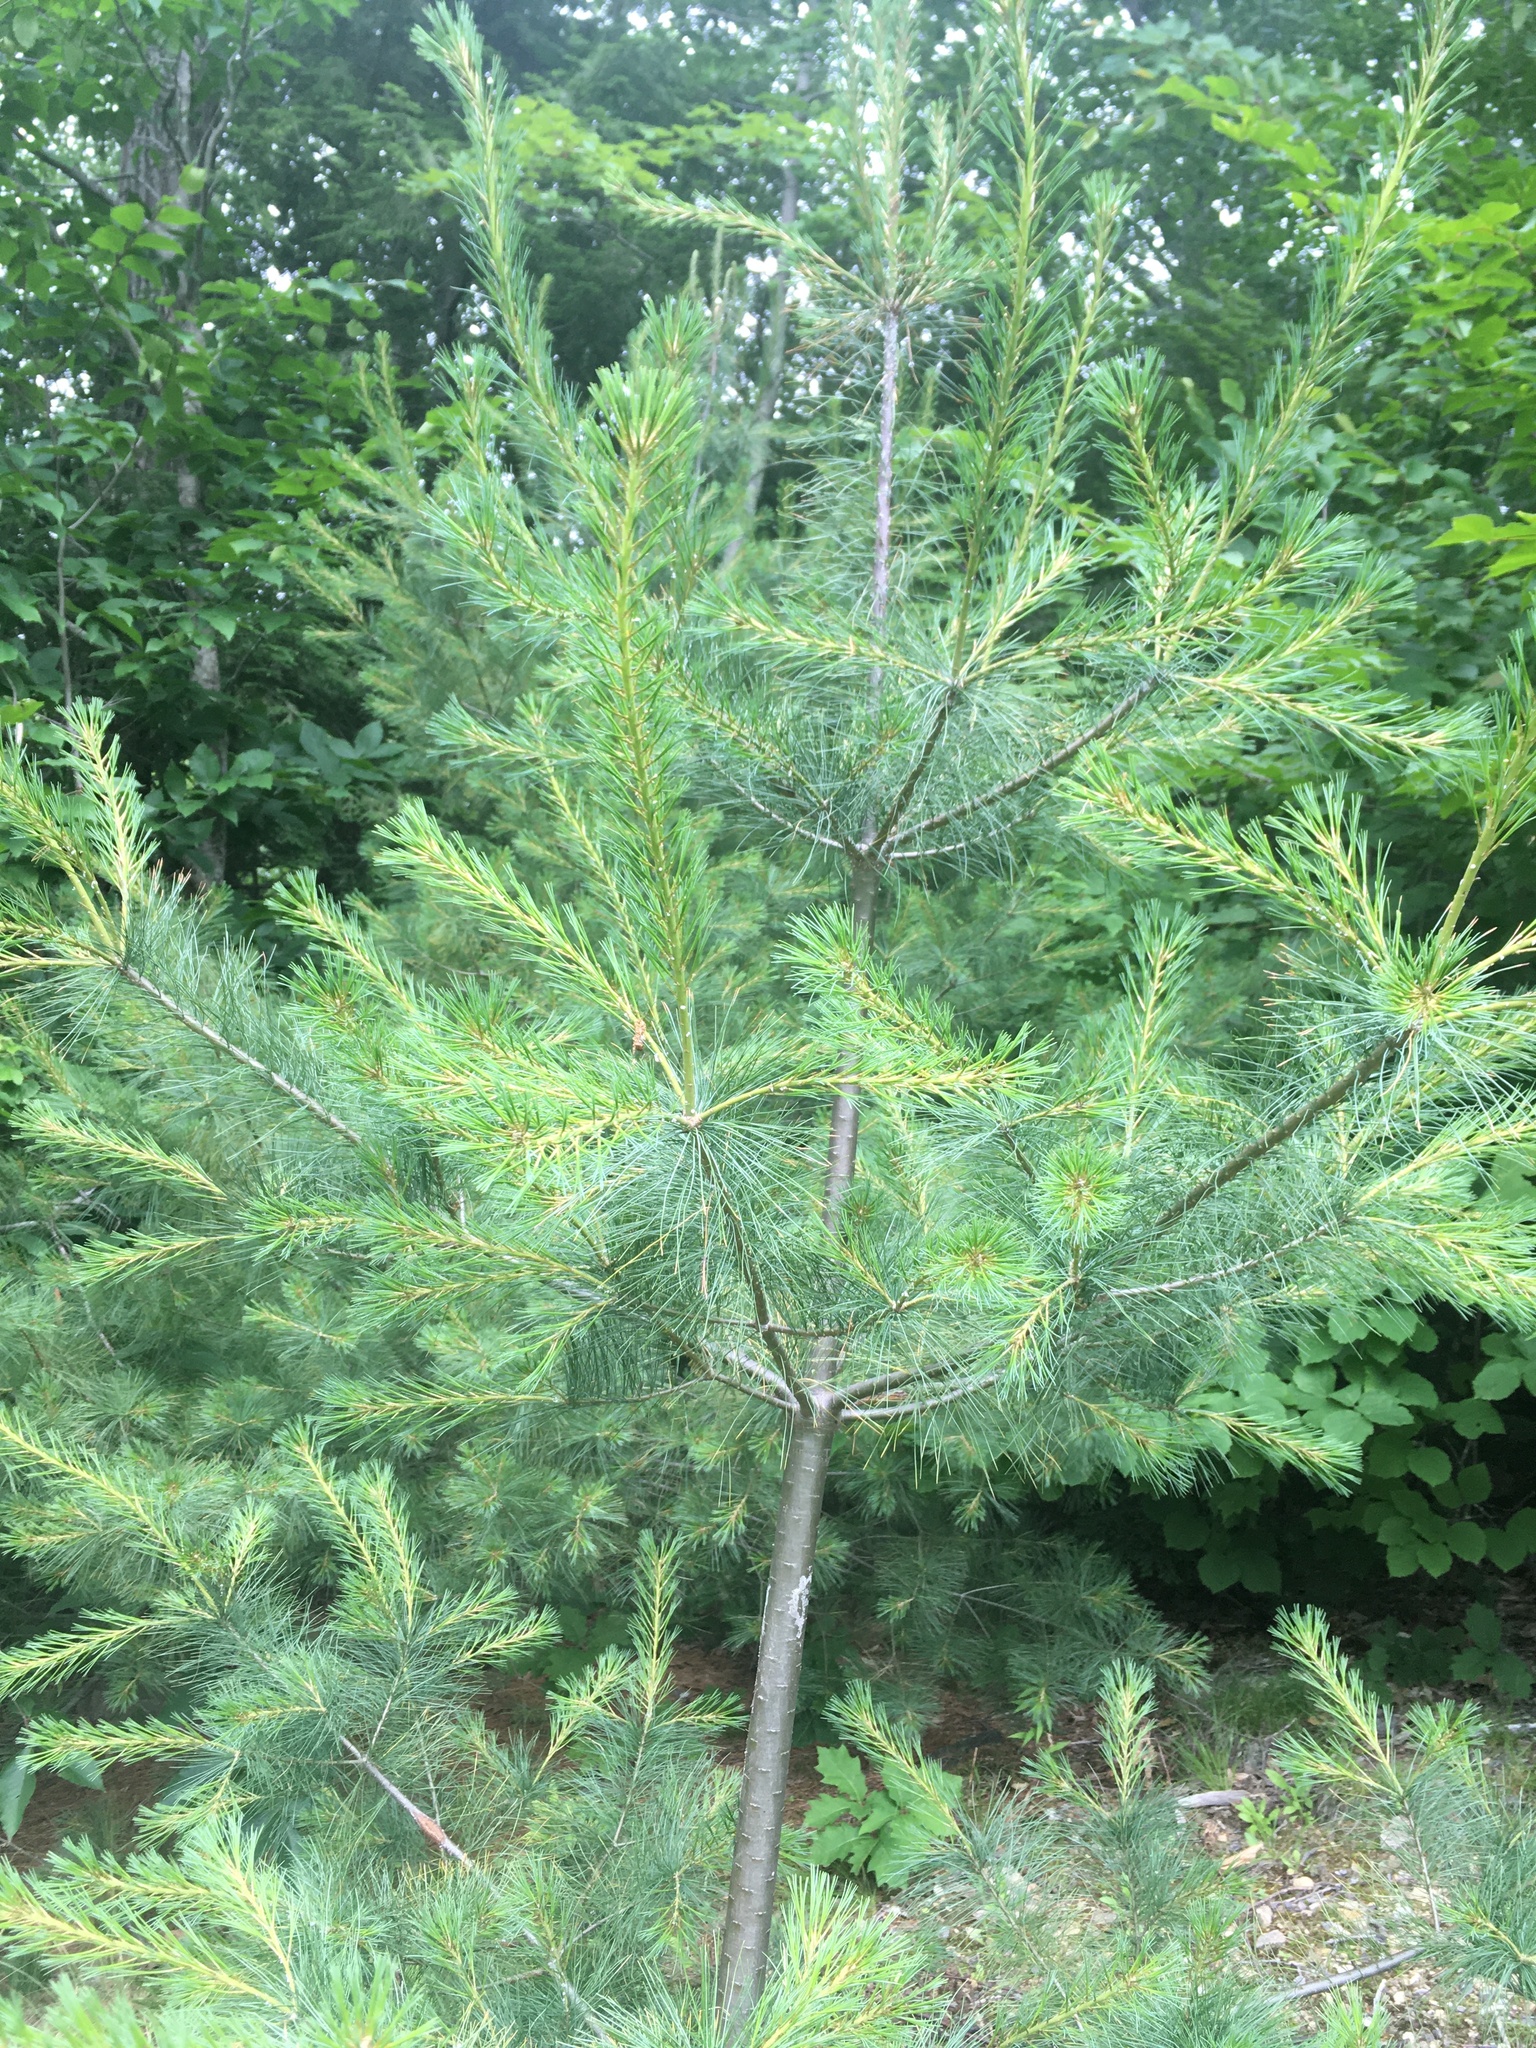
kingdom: Plantae
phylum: Tracheophyta
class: Pinopsida
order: Pinales
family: Pinaceae
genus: Pinus
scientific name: Pinus strobus
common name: Weymouth pine
